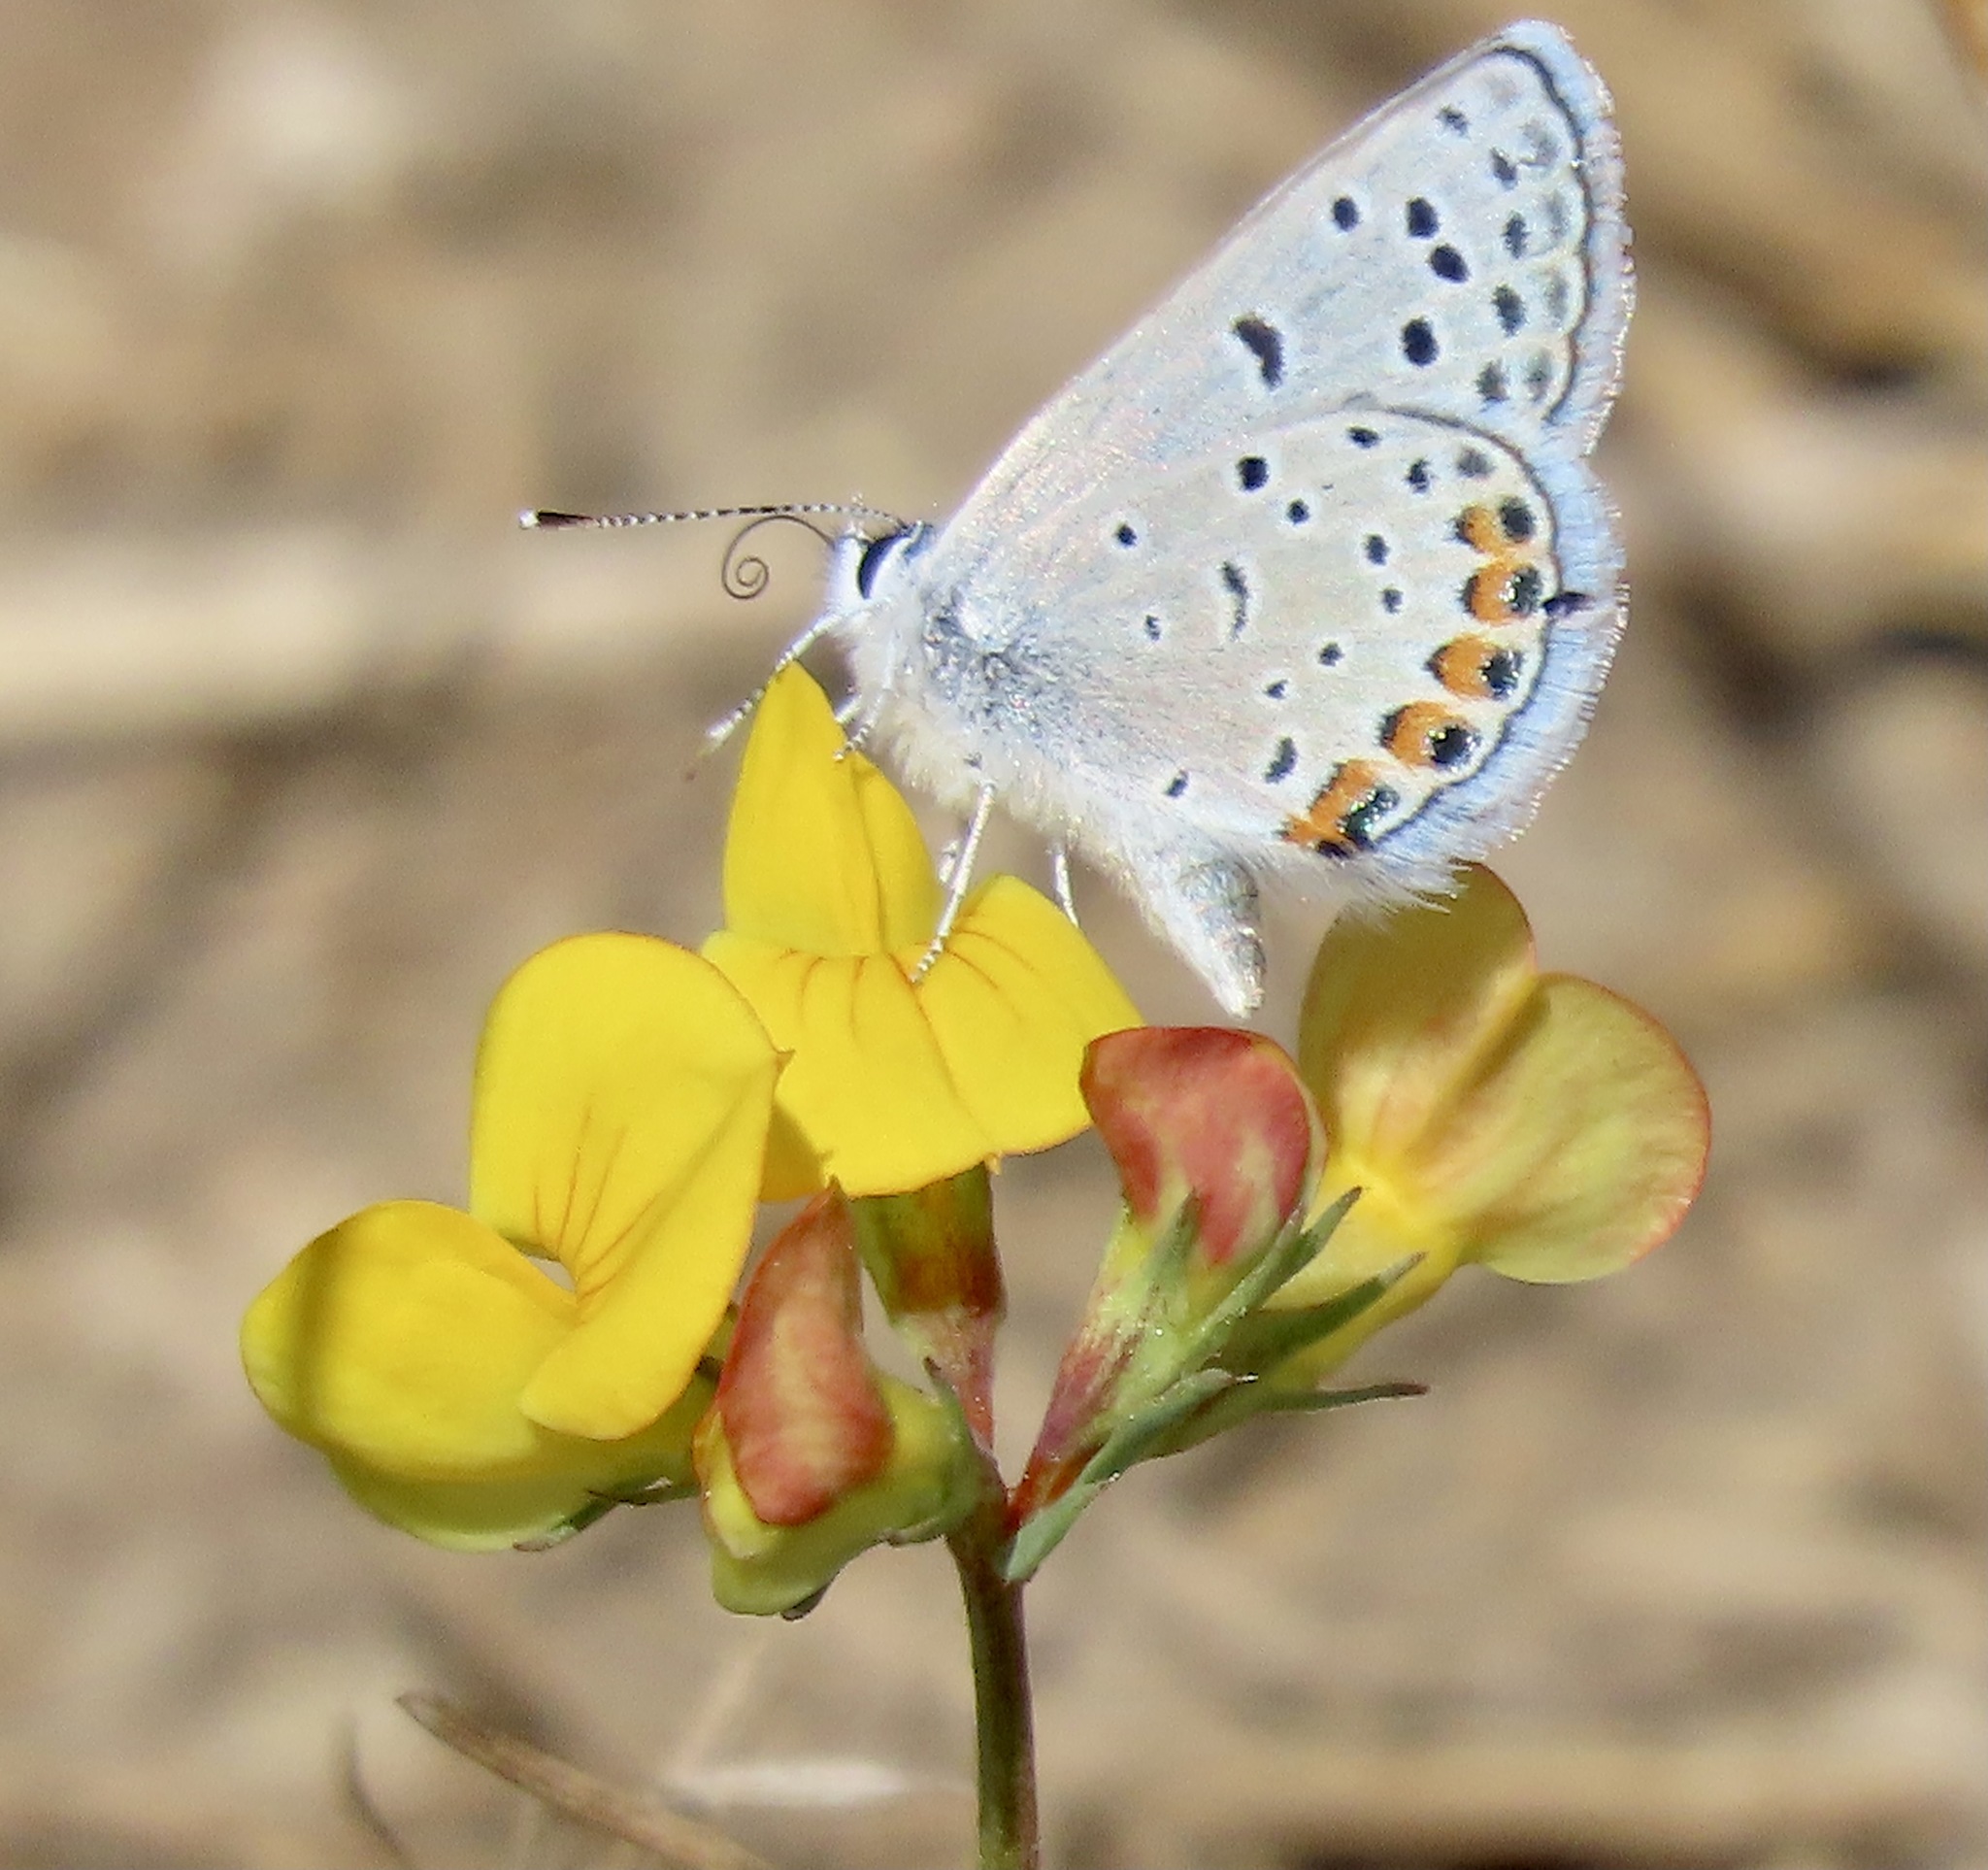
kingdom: Animalia
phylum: Arthropoda
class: Insecta
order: Lepidoptera
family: Lycaenidae
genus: Icaricia
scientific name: Icaricia acmon
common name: Acmon blue
